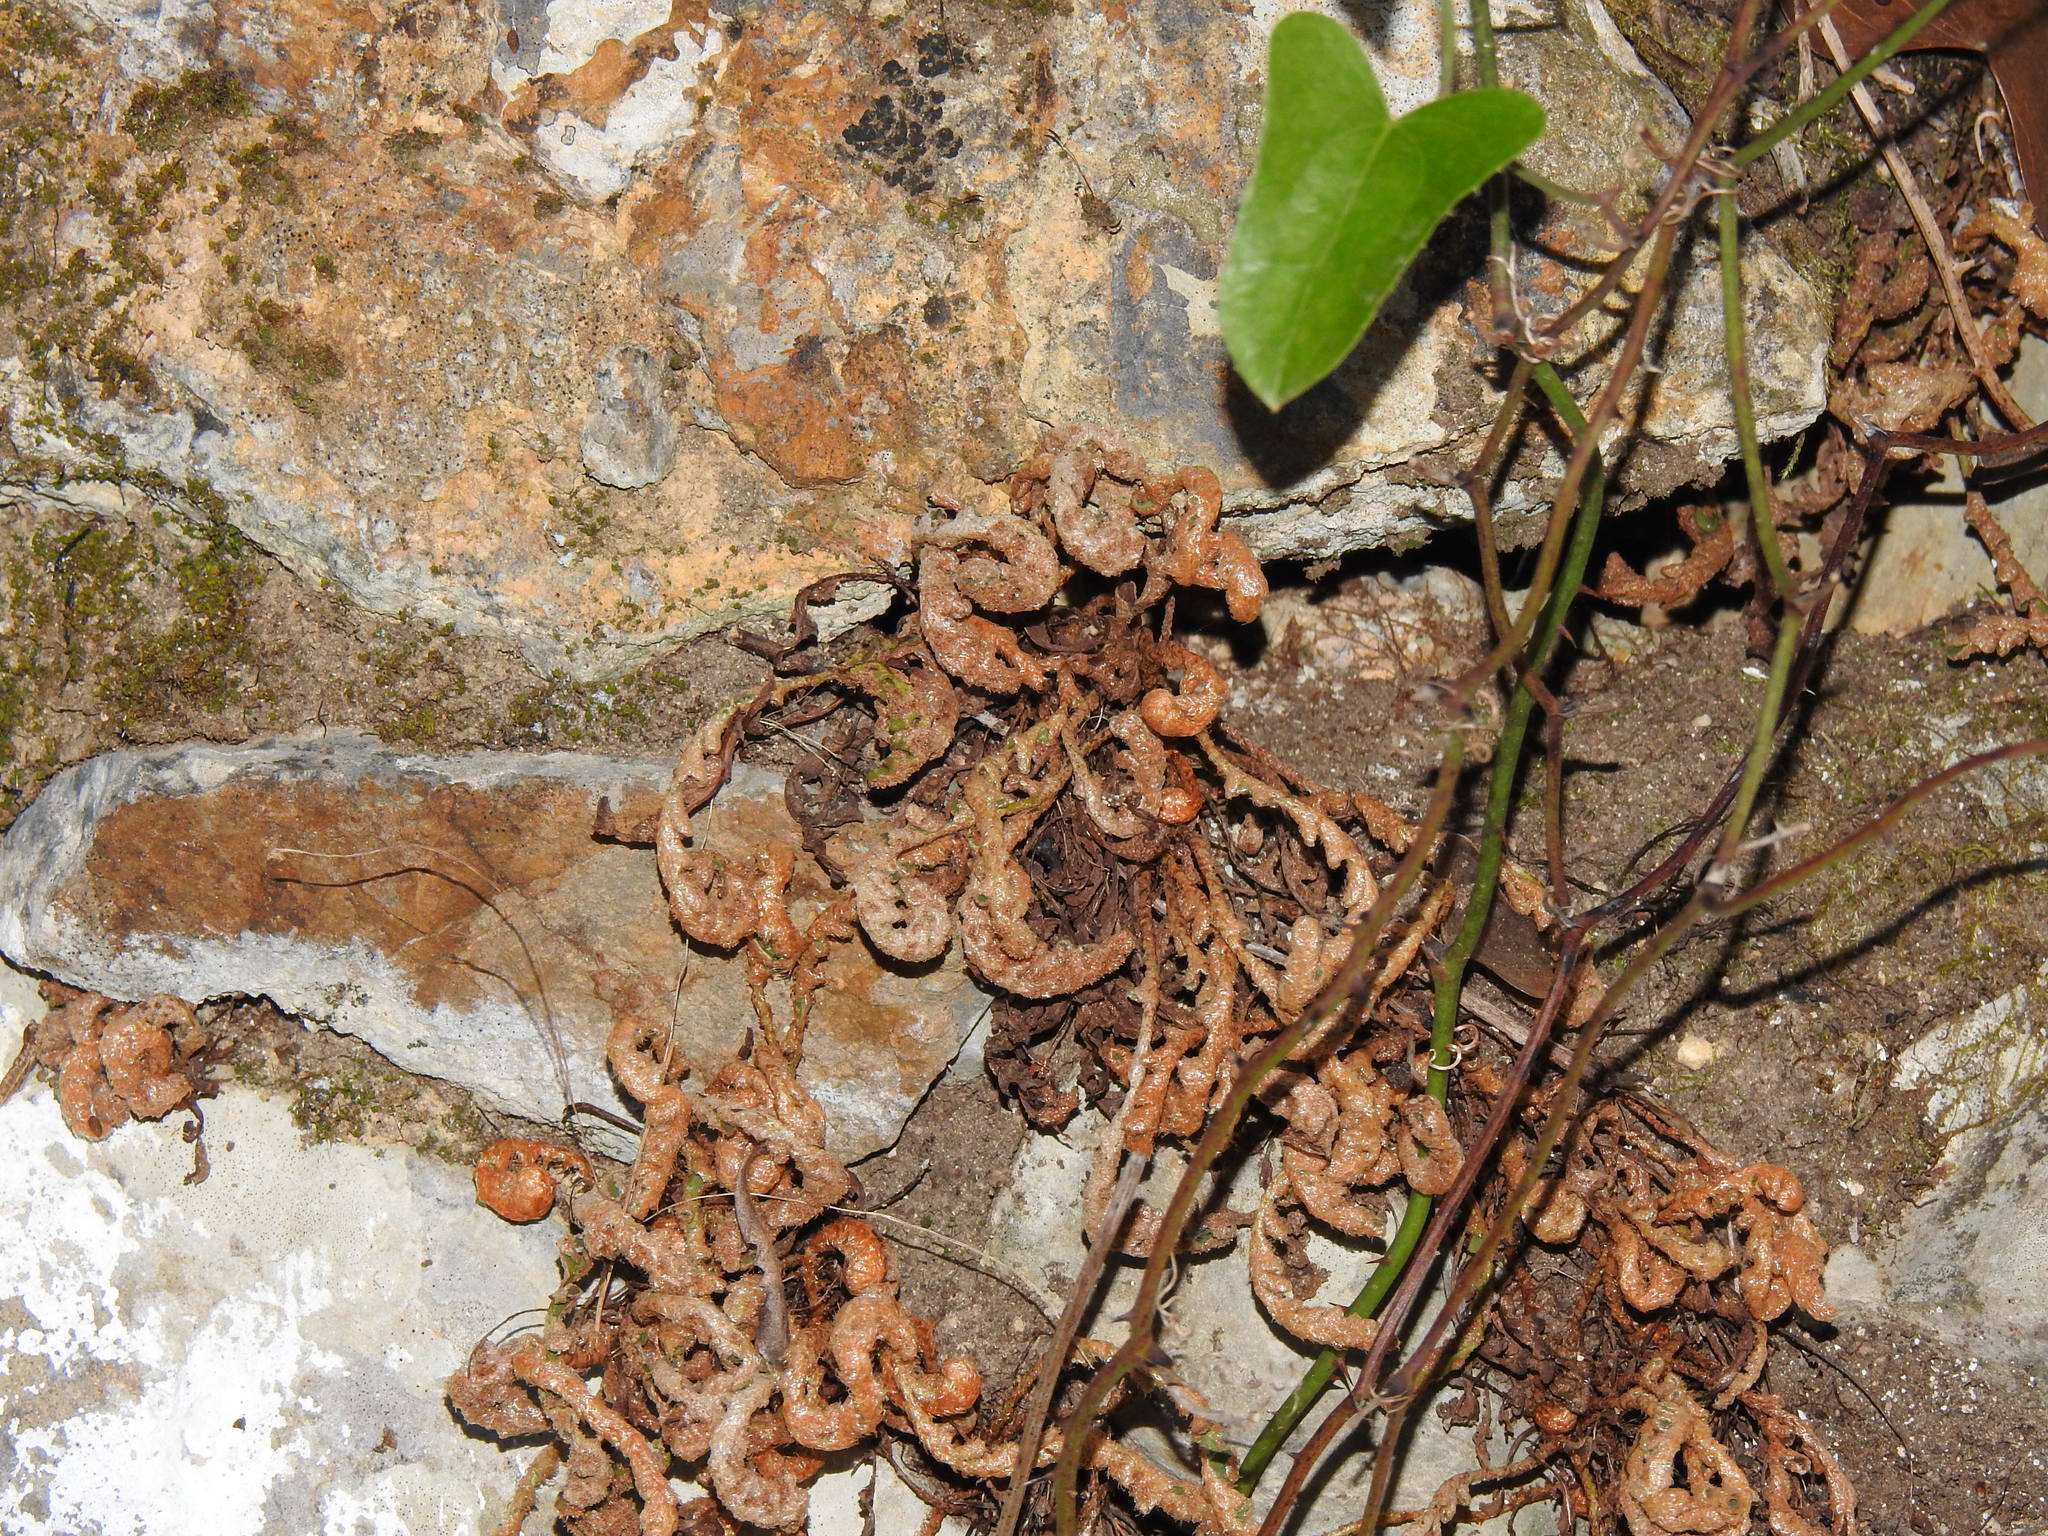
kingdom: Plantae
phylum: Tracheophyta
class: Polypodiopsida
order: Polypodiales
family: Aspleniaceae
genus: Asplenium
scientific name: Asplenium ceterach
